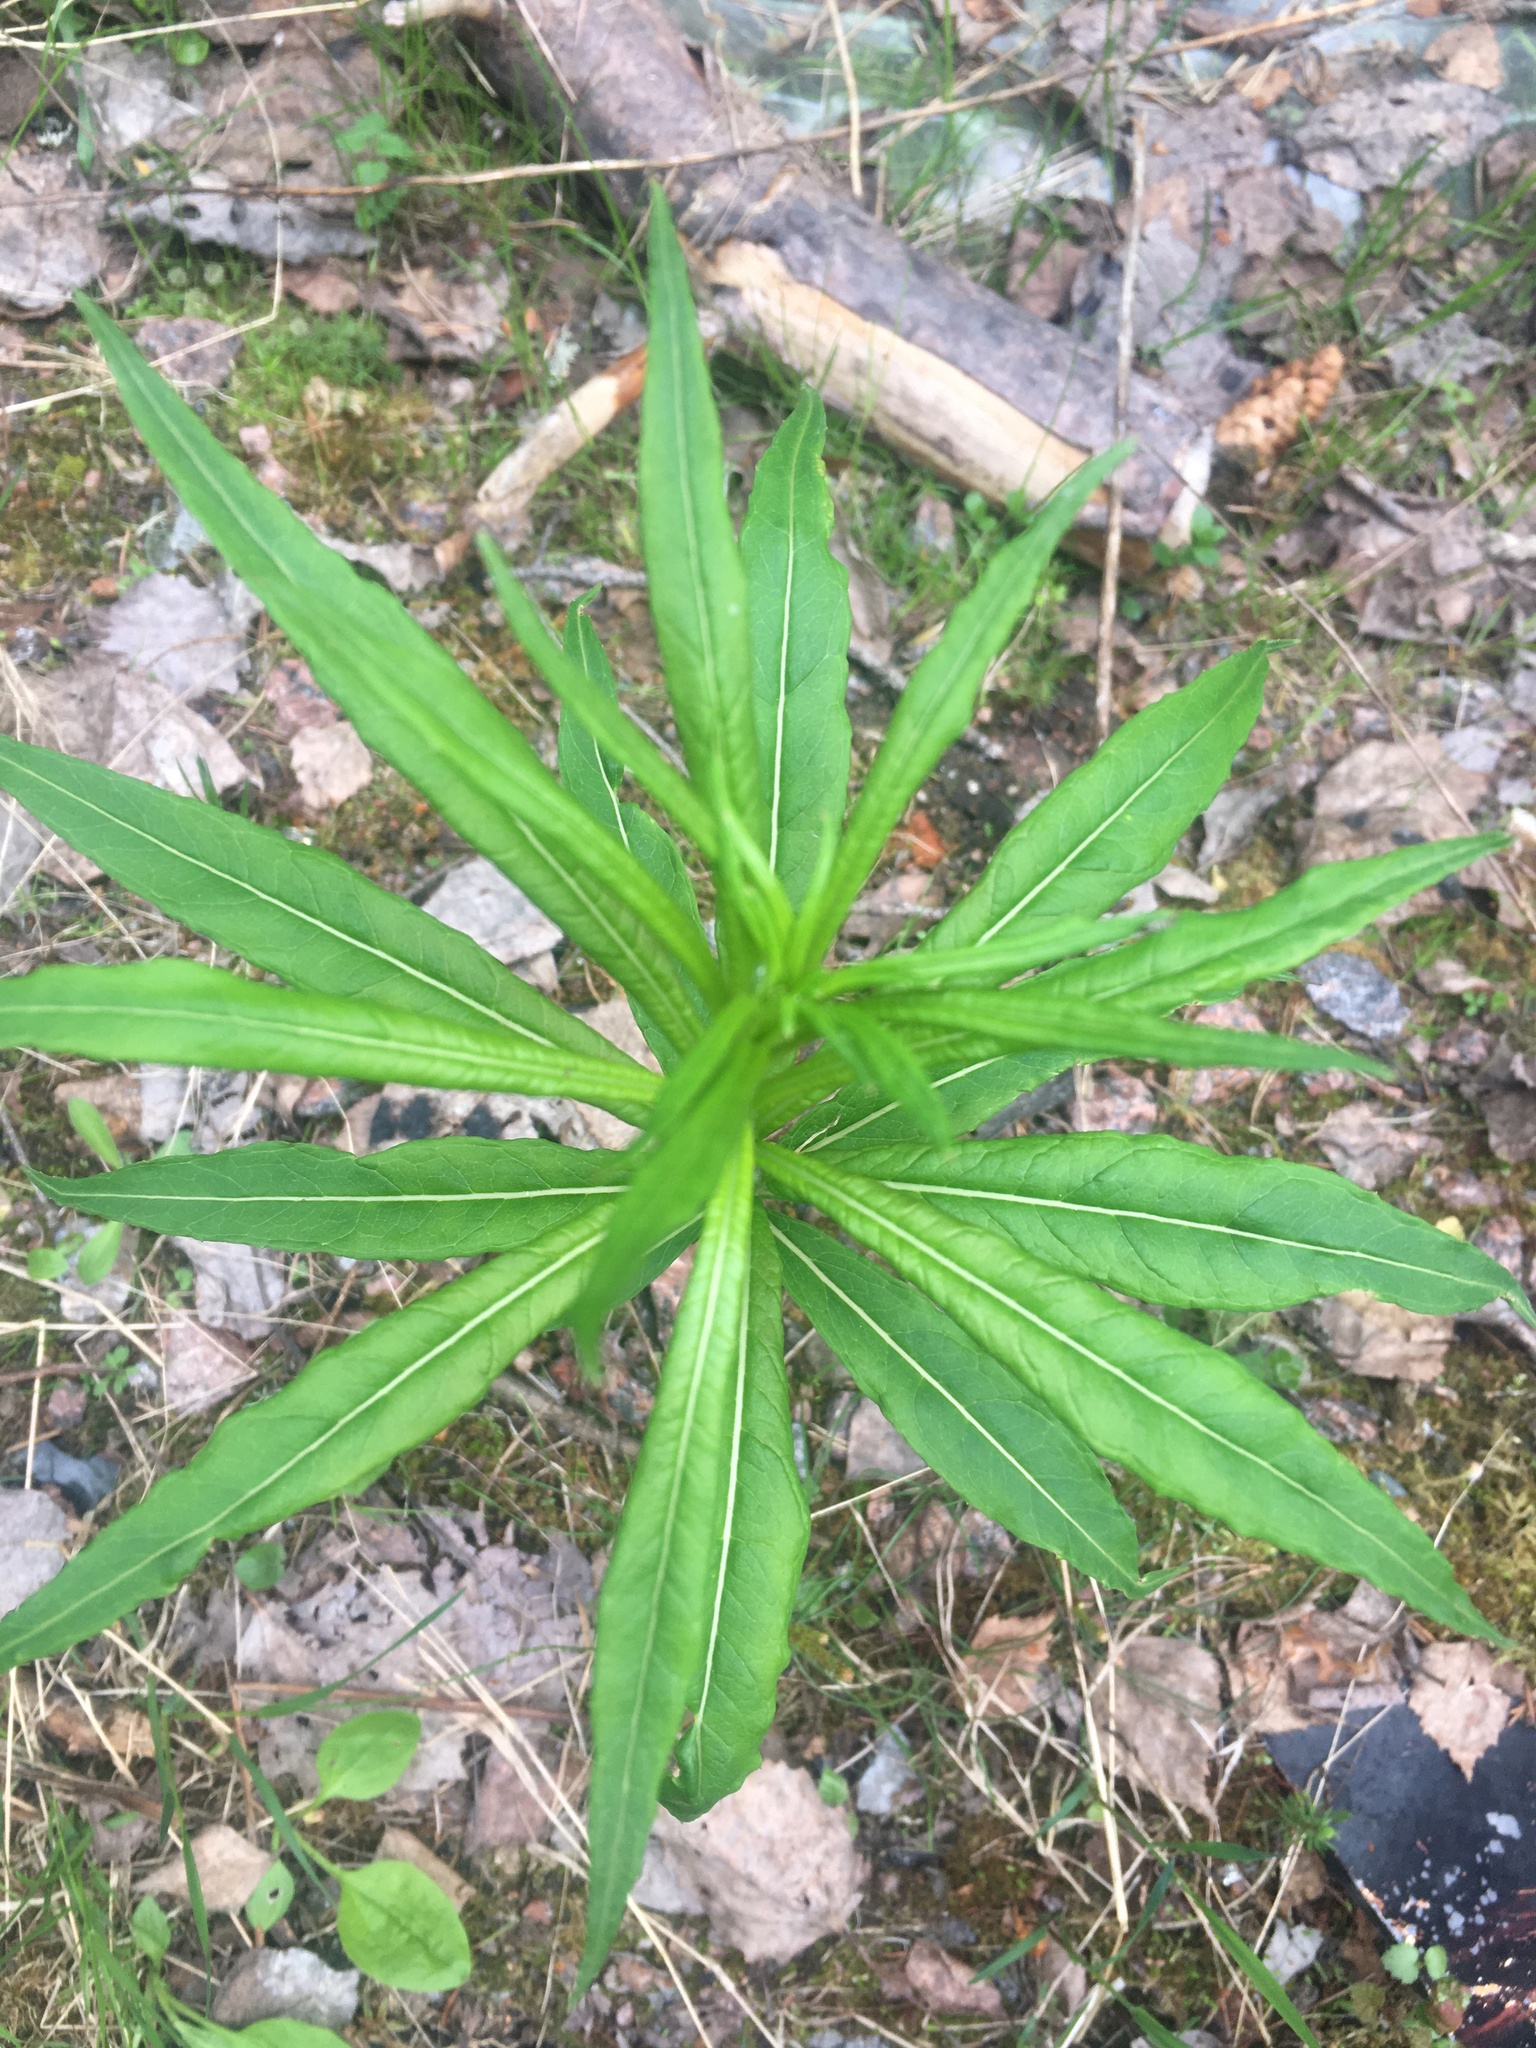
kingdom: Plantae
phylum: Tracheophyta
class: Magnoliopsida
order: Myrtales
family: Onagraceae
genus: Chamaenerion
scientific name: Chamaenerion angustifolium
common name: Fireweed
